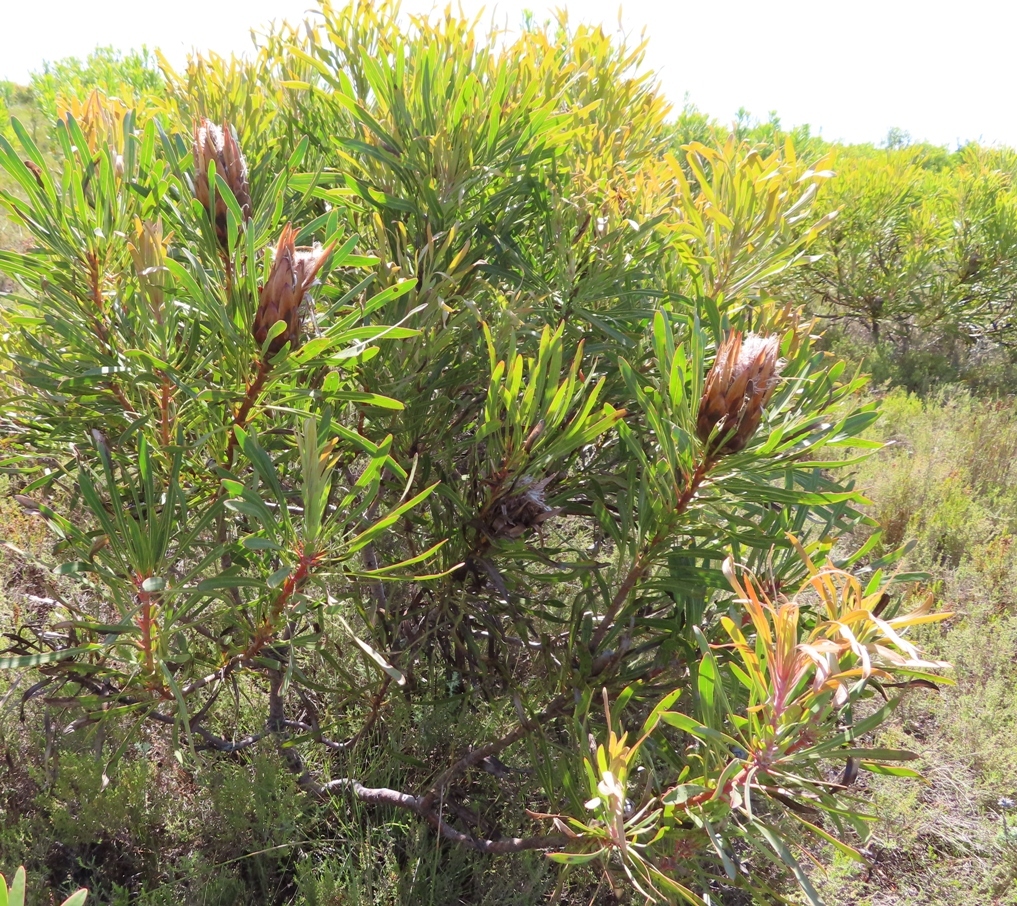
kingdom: Plantae
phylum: Tracheophyta
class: Magnoliopsida
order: Proteales
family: Proteaceae
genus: Protea
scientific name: Protea longifolia
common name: Long-leaf sugarbush
